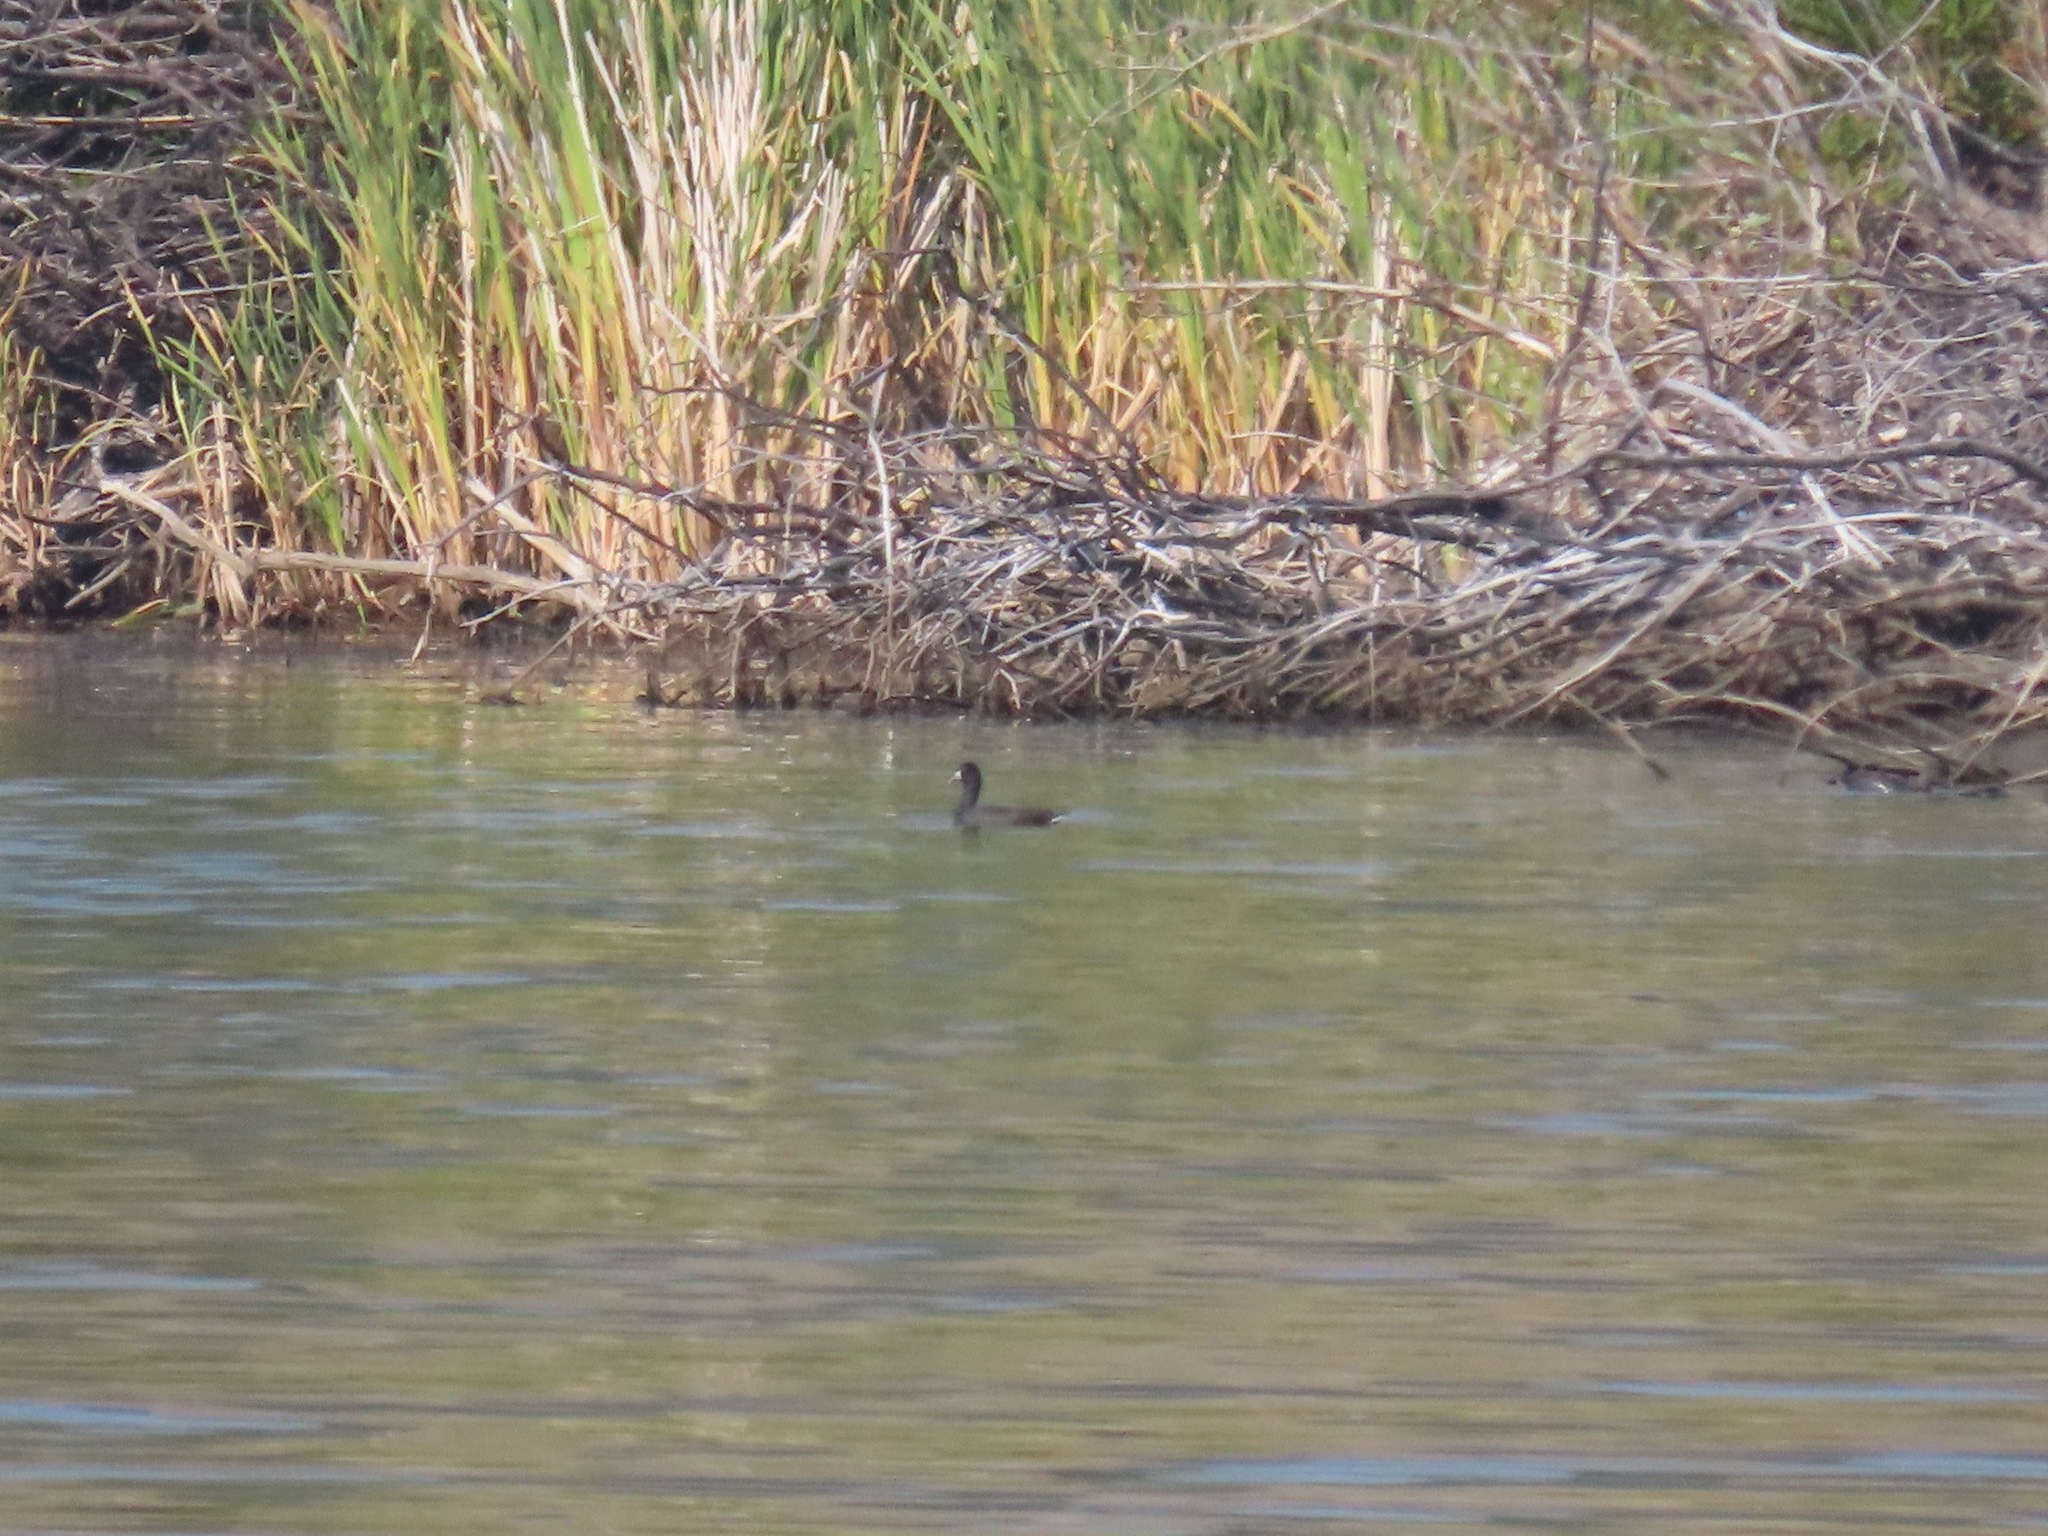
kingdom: Animalia
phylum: Chordata
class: Aves
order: Gruiformes
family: Rallidae
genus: Fulica
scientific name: Fulica americana
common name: American coot
